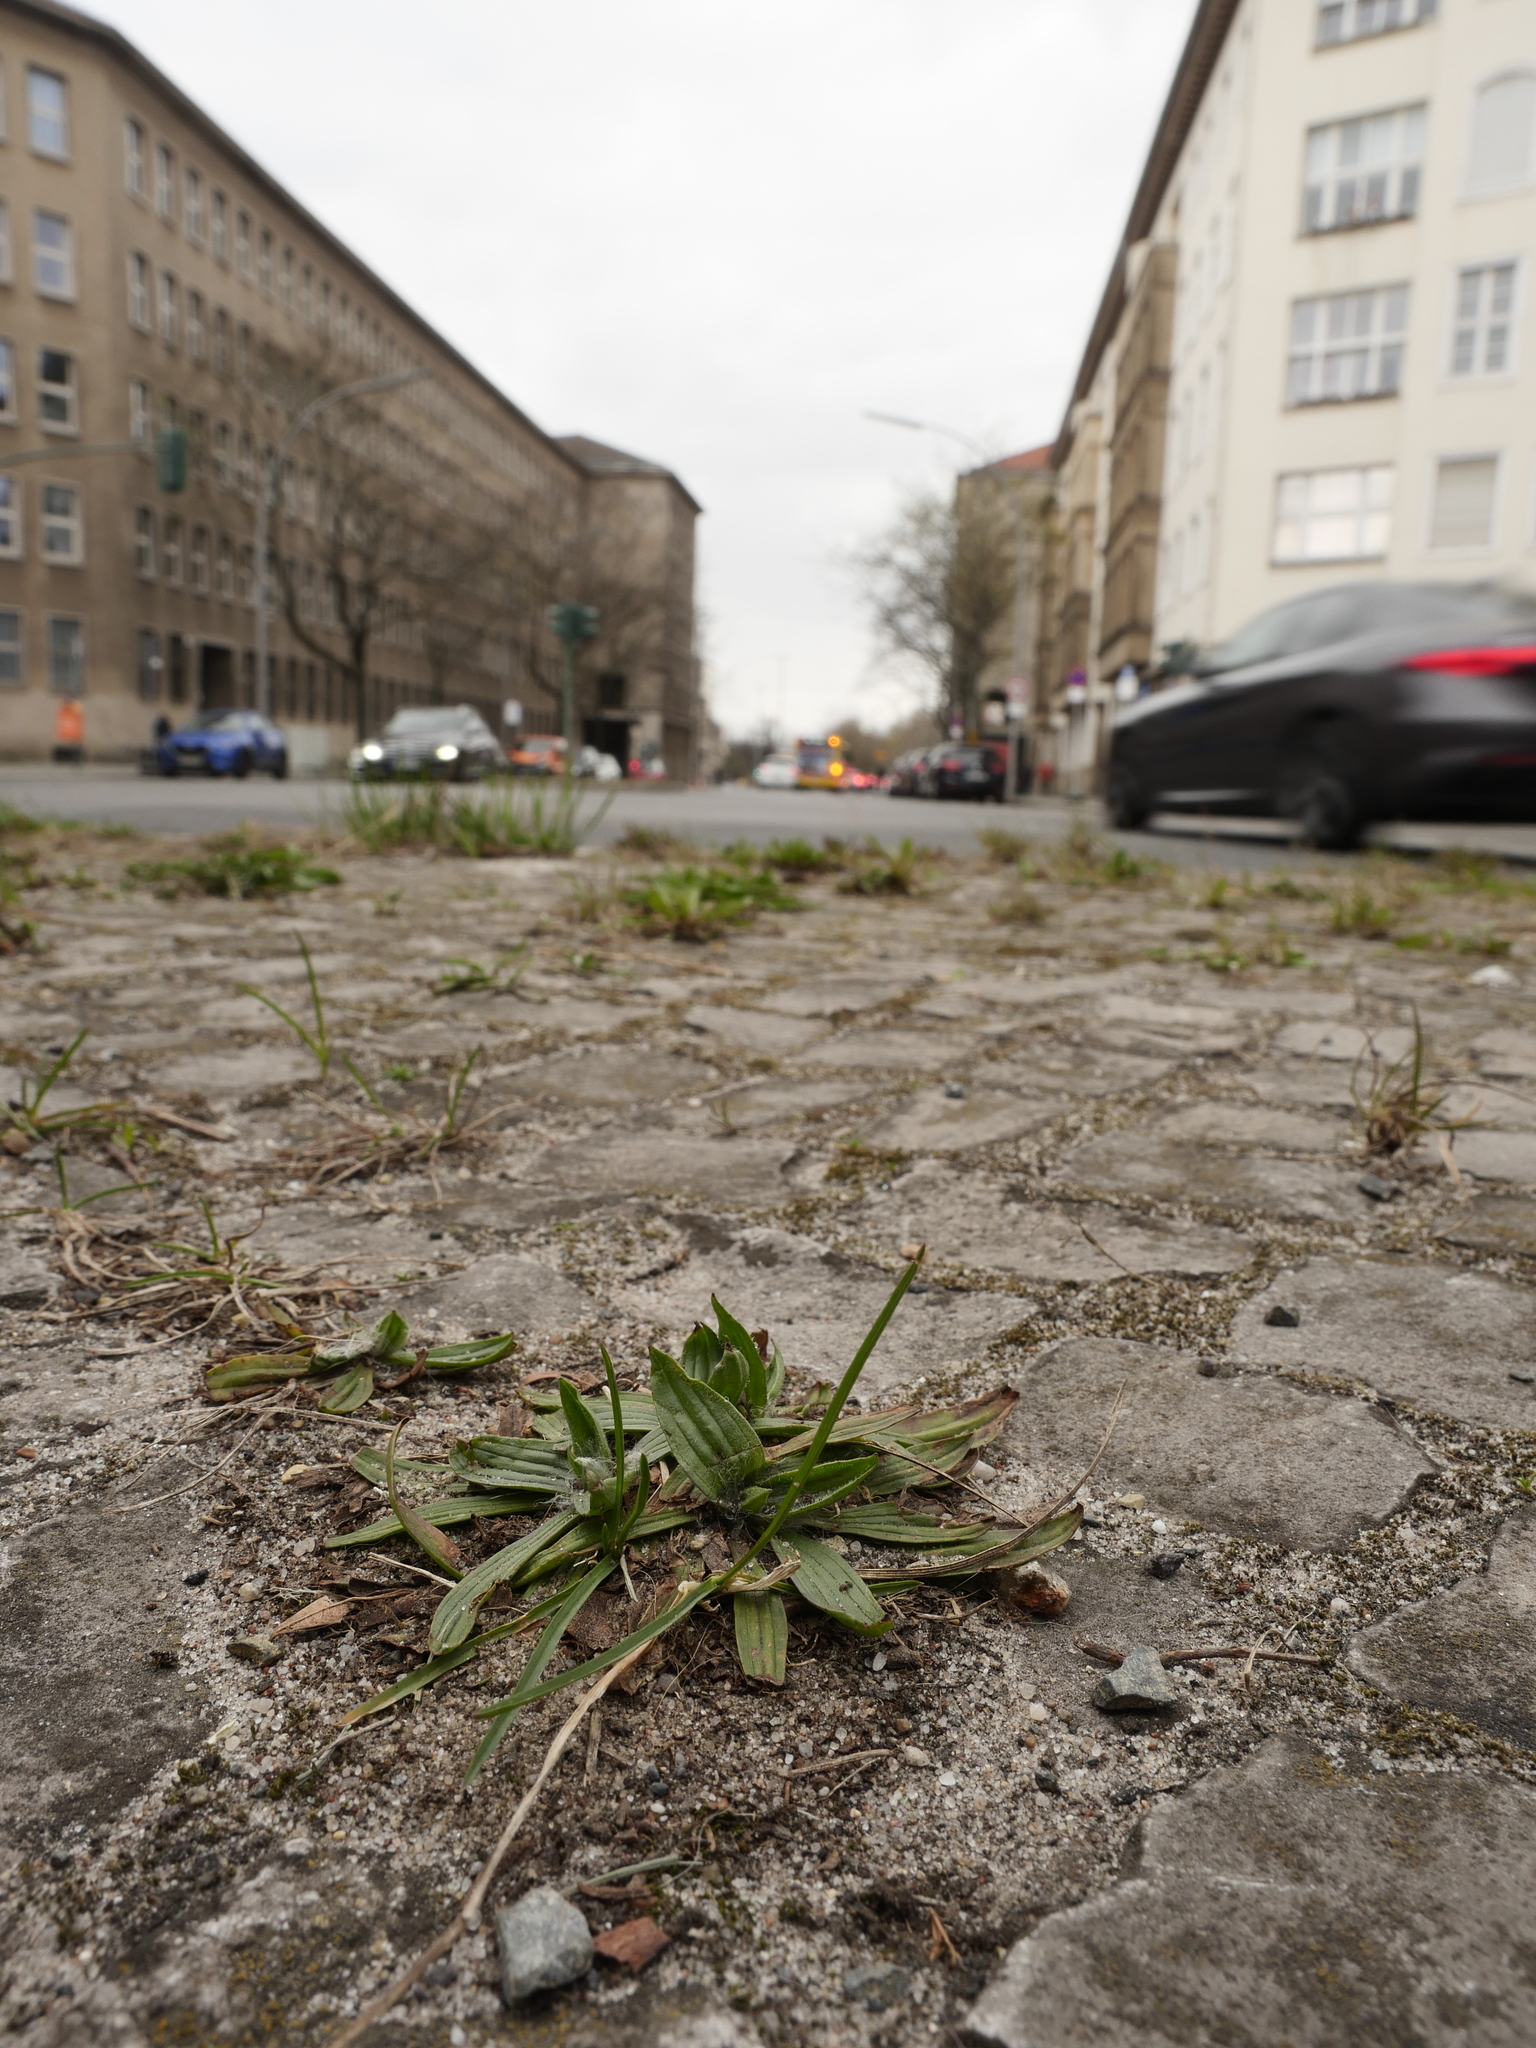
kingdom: Plantae
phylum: Tracheophyta
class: Magnoliopsida
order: Lamiales
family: Plantaginaceae
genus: Plantago
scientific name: Plantago lanceolata
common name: Ribwort plantain
